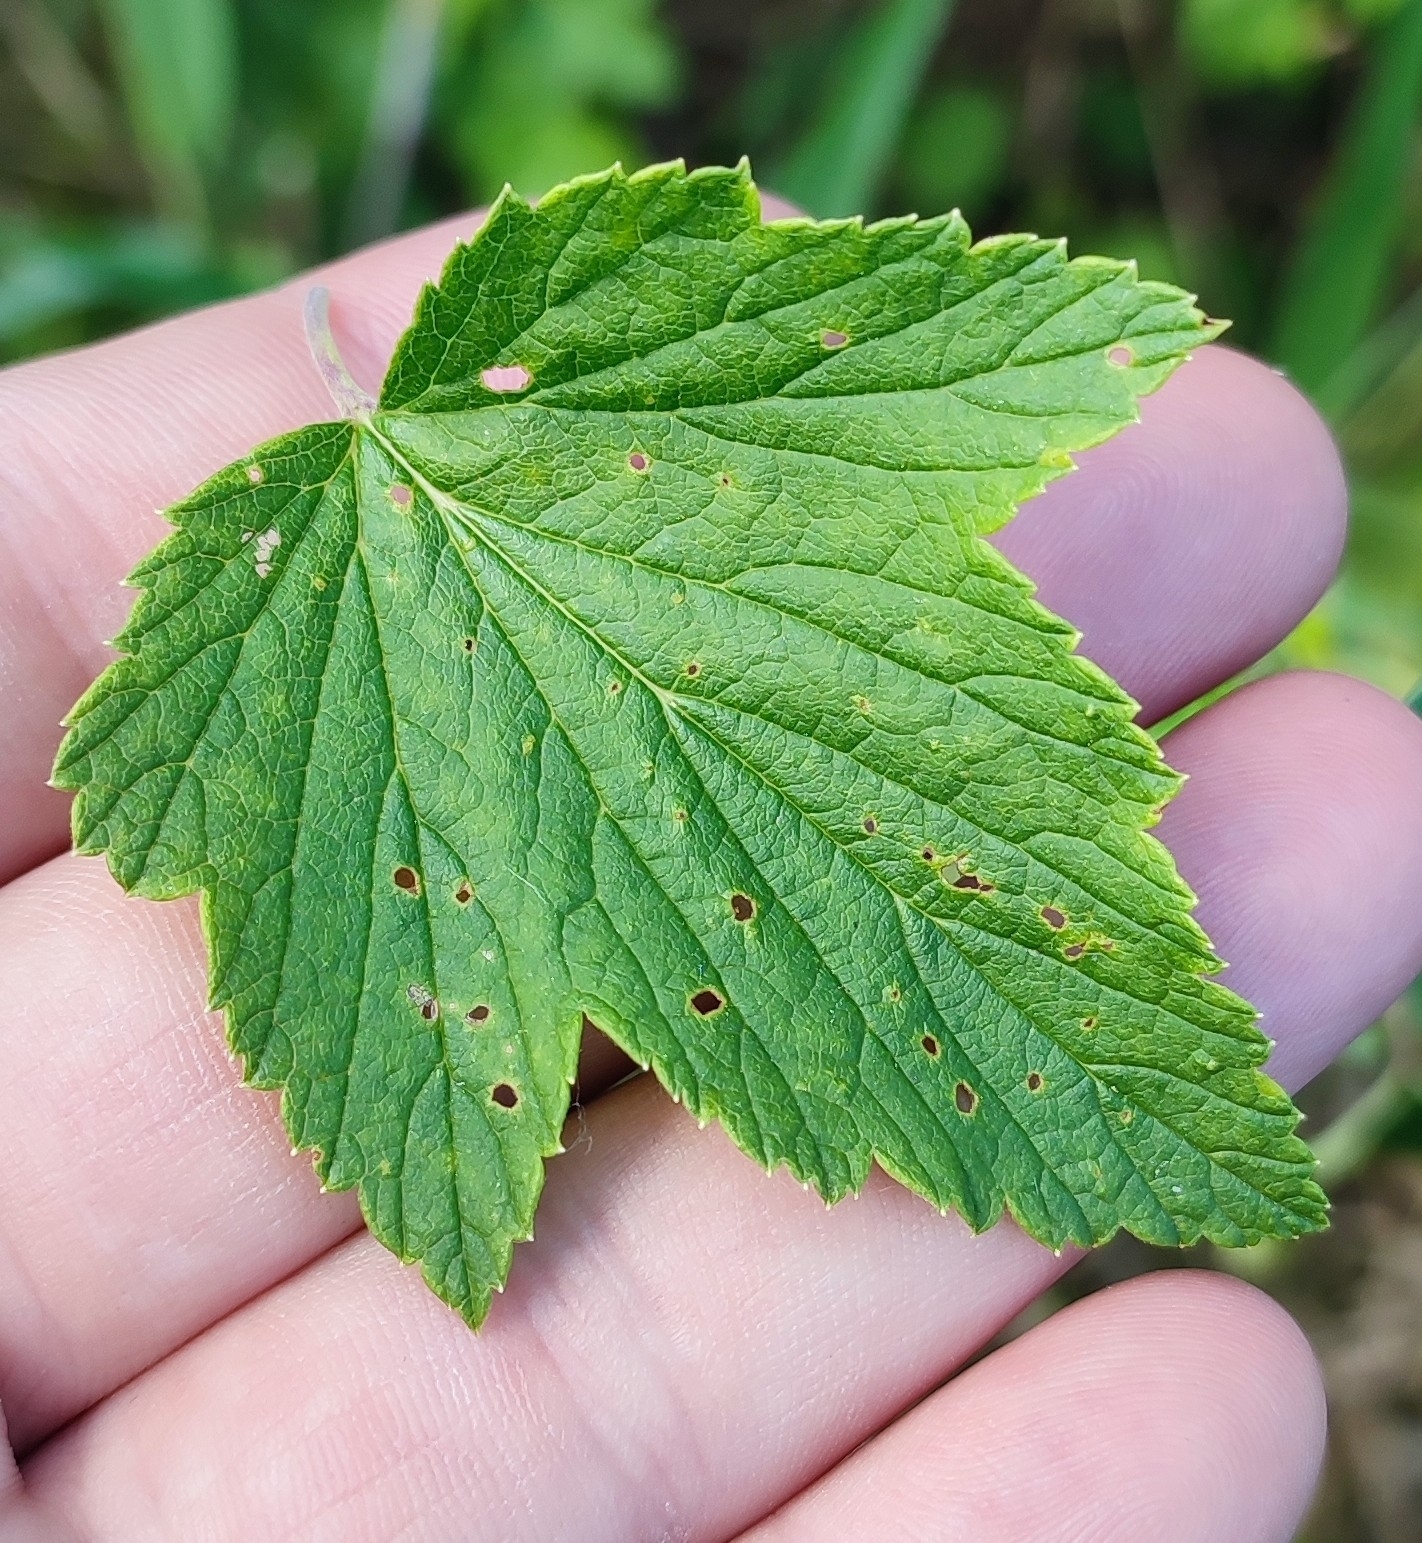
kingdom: Plantae
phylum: Tracheophyta
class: Magnoliopsida
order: Saxifragales
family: Grossulariaceae
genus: Ribes
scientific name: Ribes nigrum
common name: Black currant
